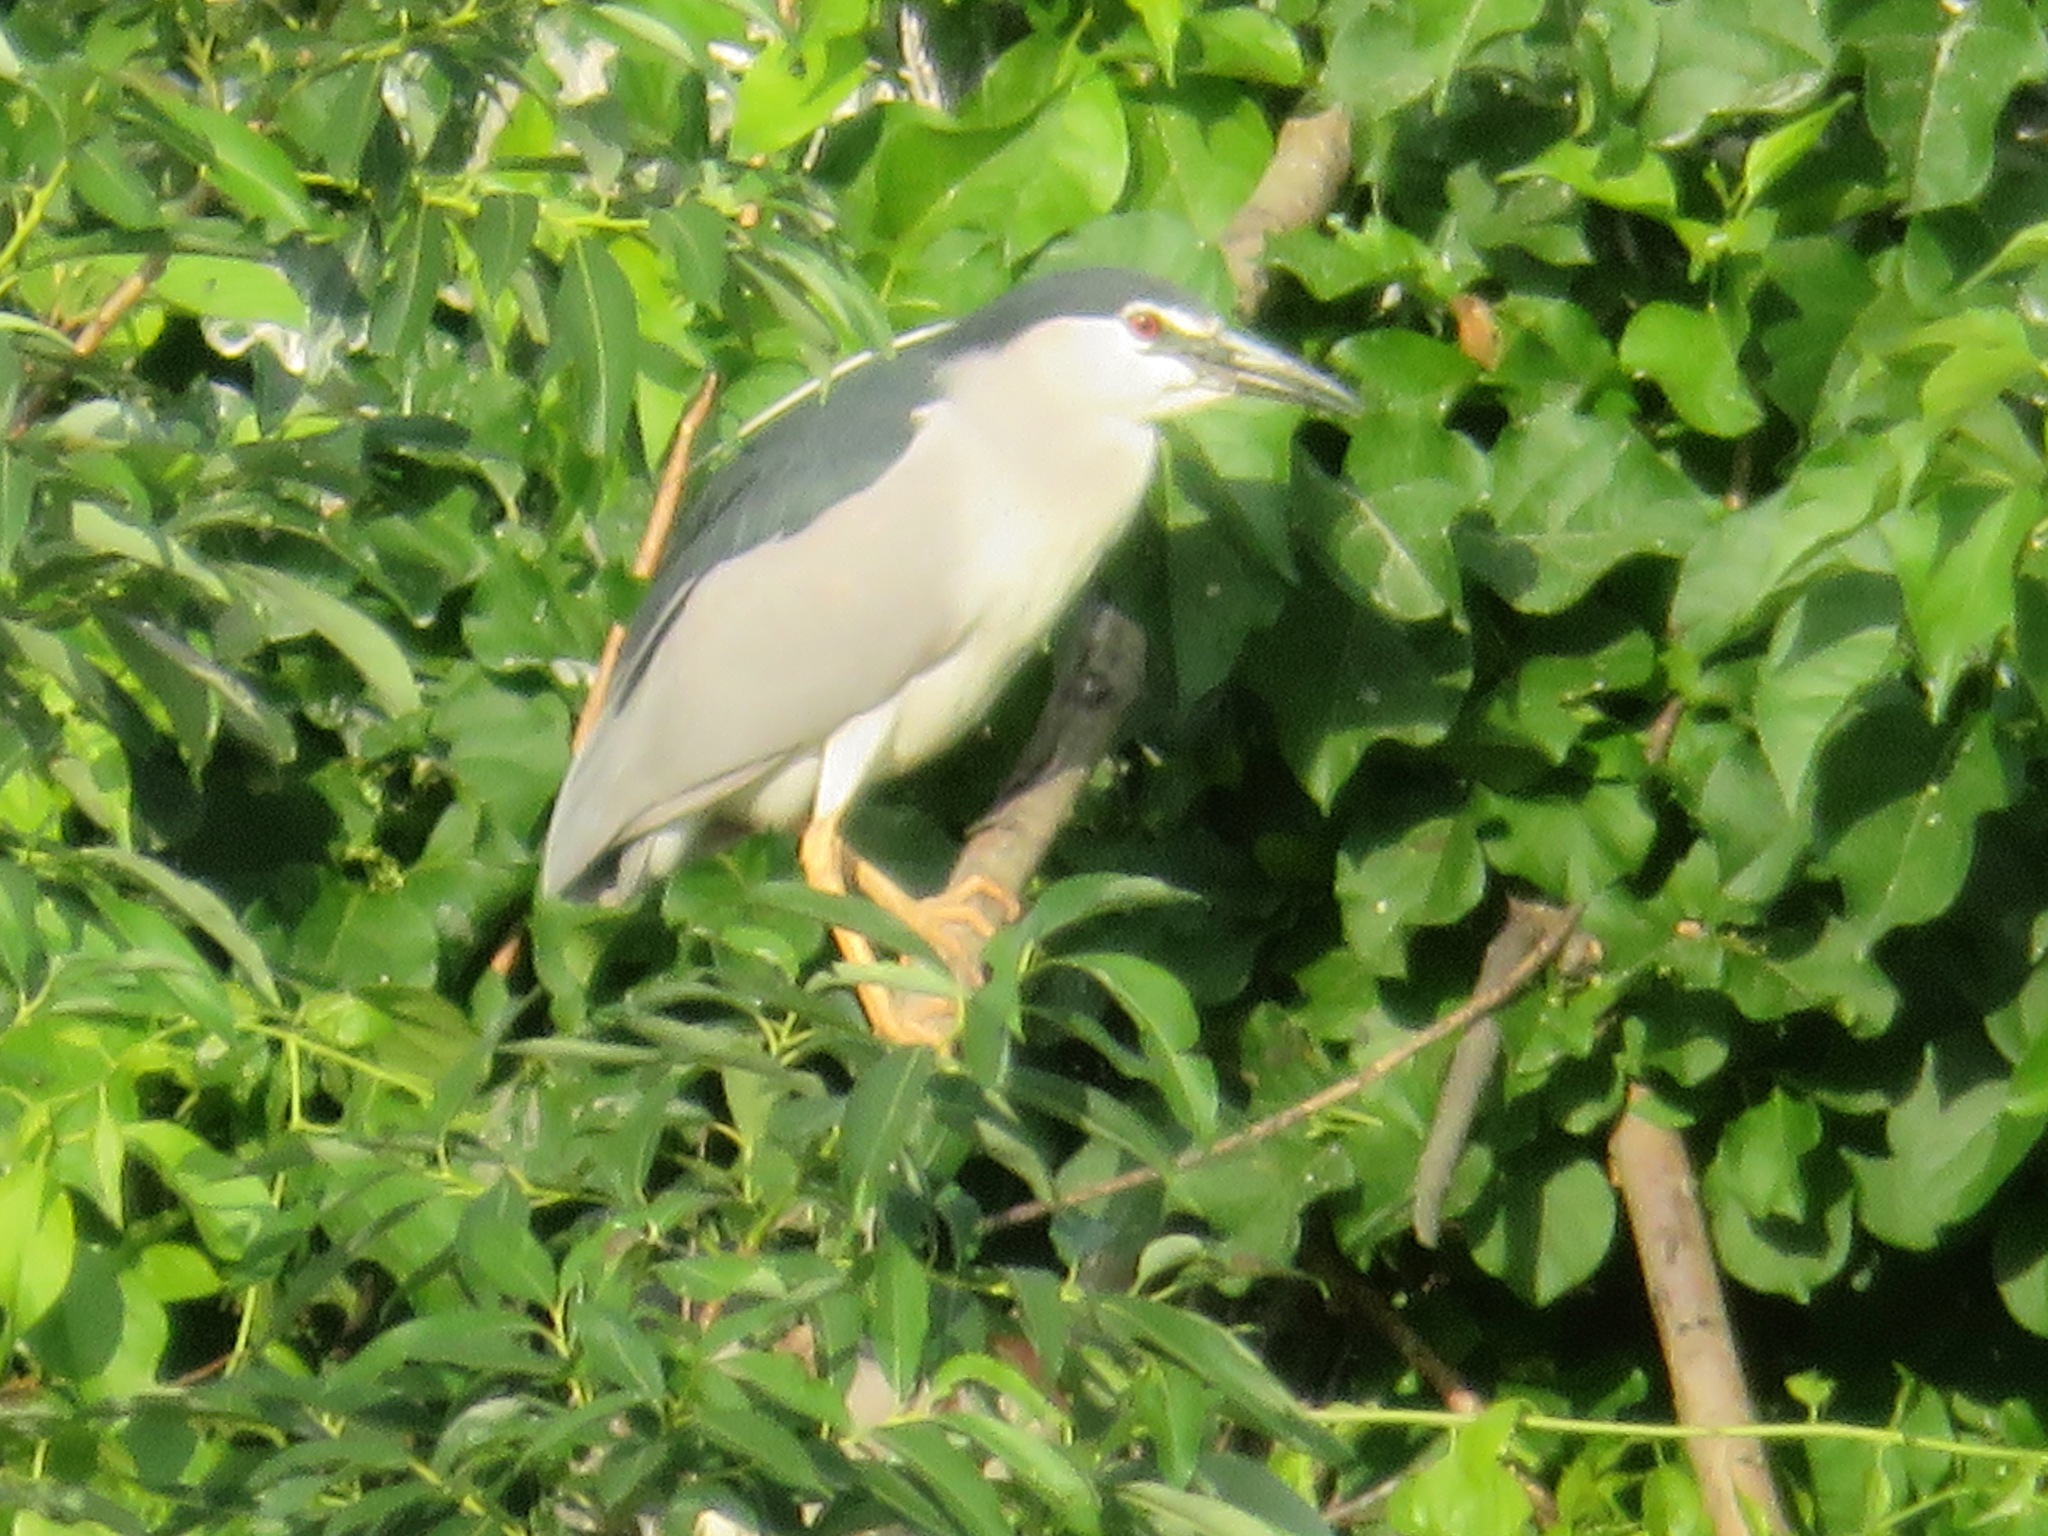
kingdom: Animalia
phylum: Chordata
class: Aves
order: Pelecaniformes
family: Ardeidae
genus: Nycticorax
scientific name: Nycticorax nycticorax
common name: Black-crowned night heron
